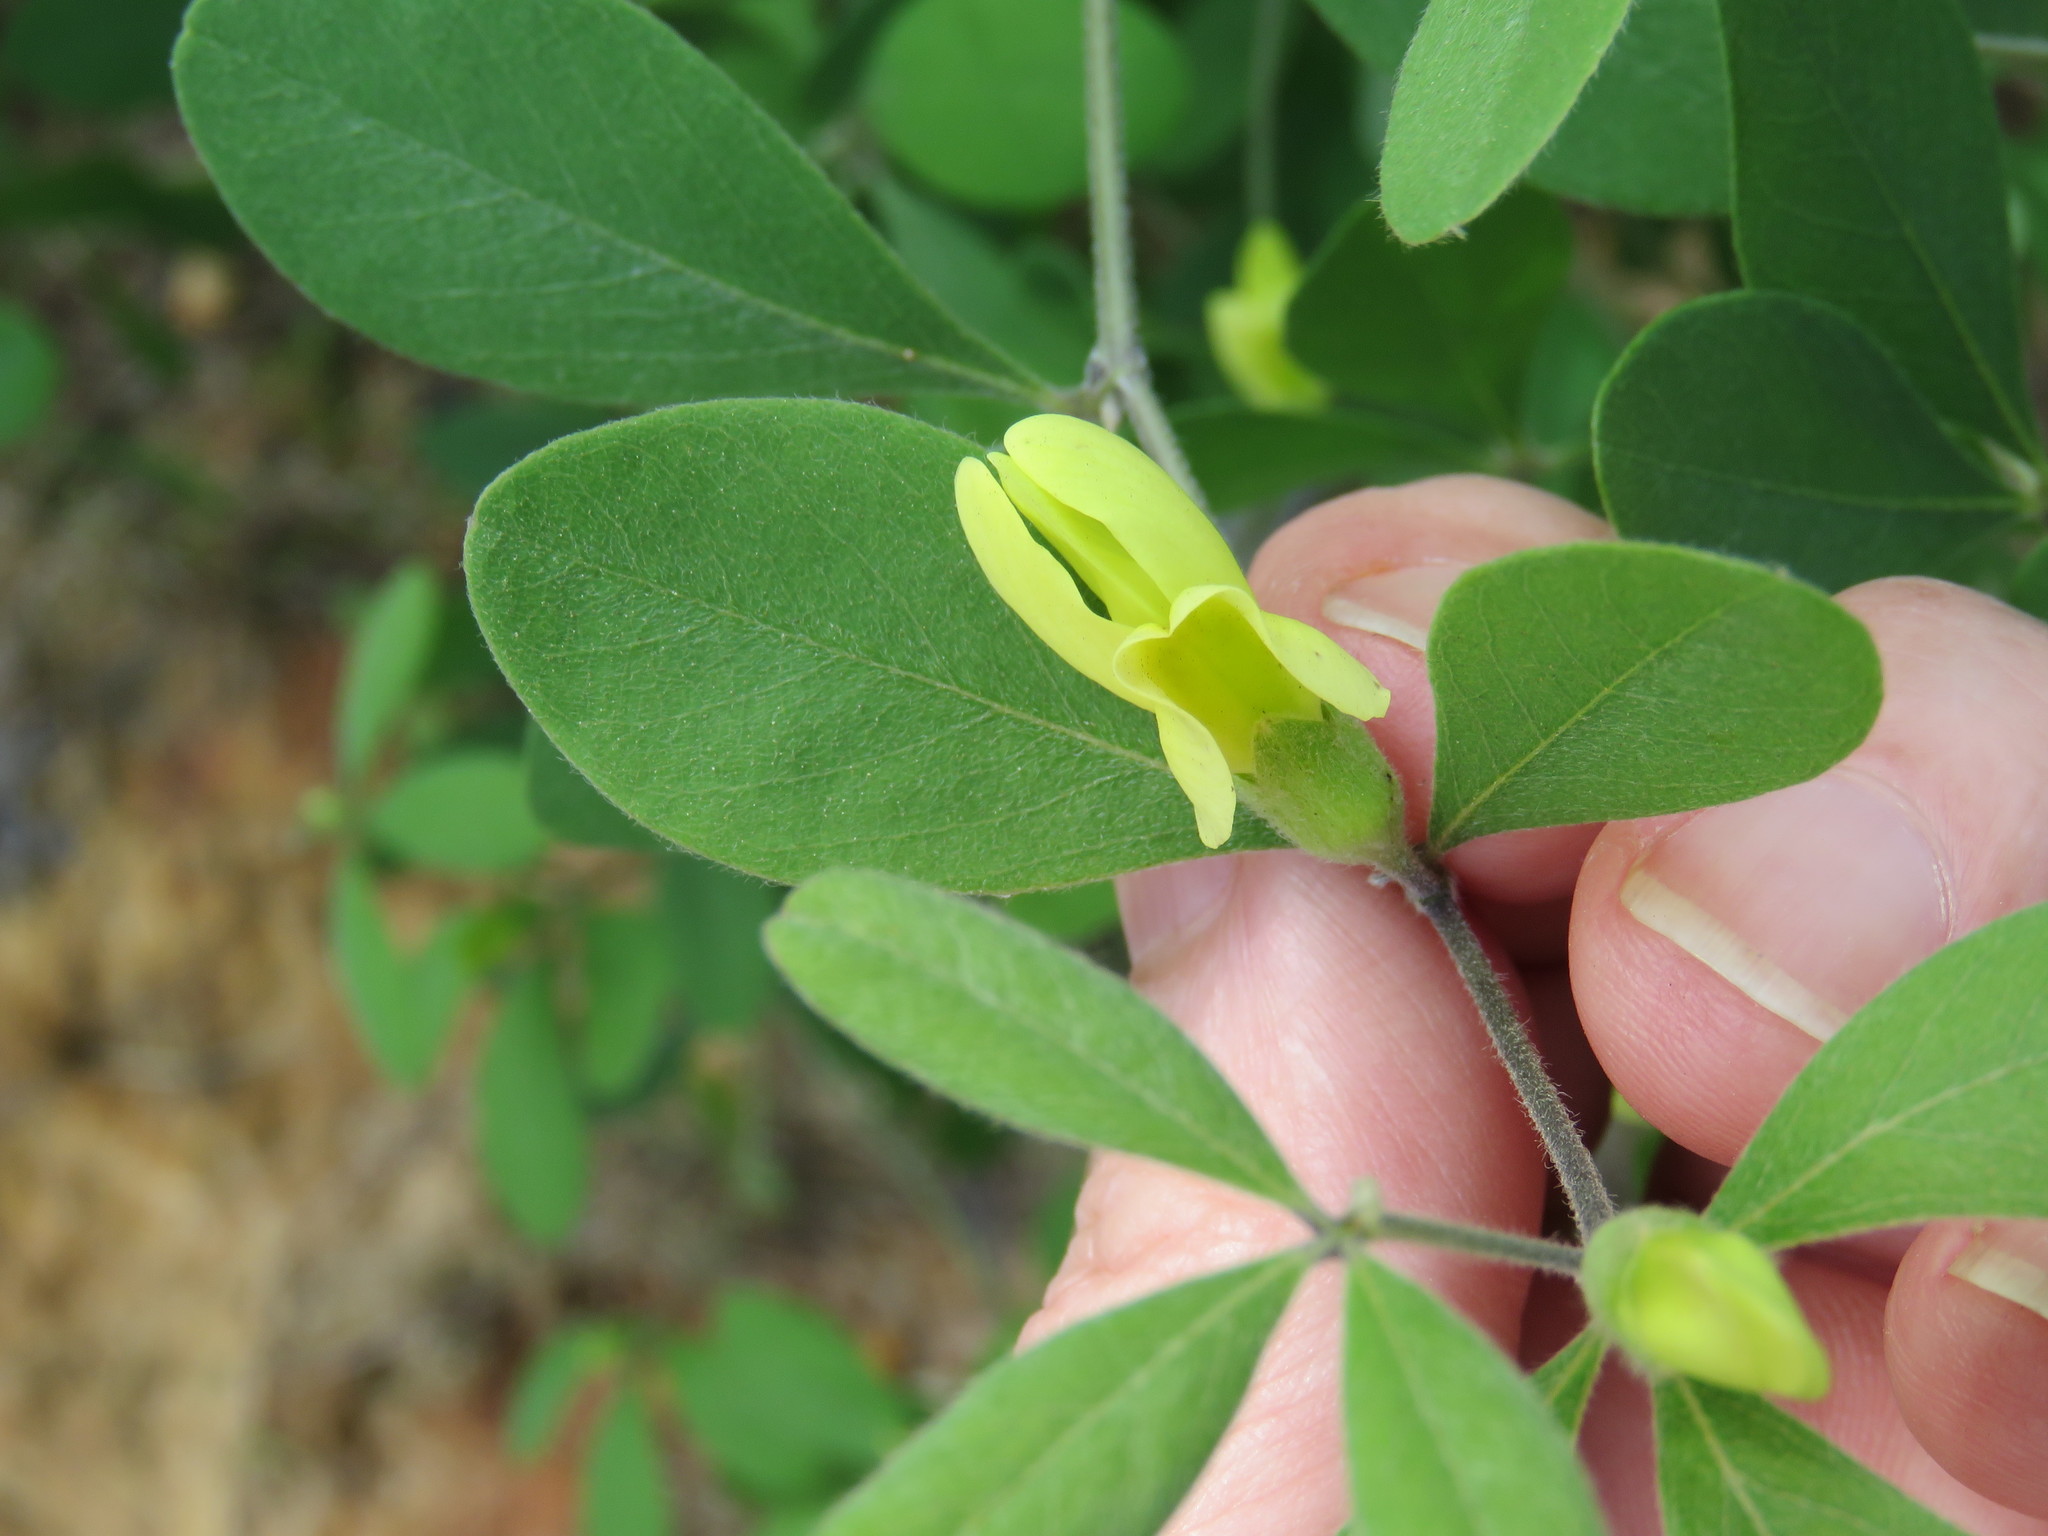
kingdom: Plantae
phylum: Tracheophyta
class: Magnoliopsida
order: Fabales
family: Fabaceae
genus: Baptisia
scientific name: Baptisia nuttalliana
